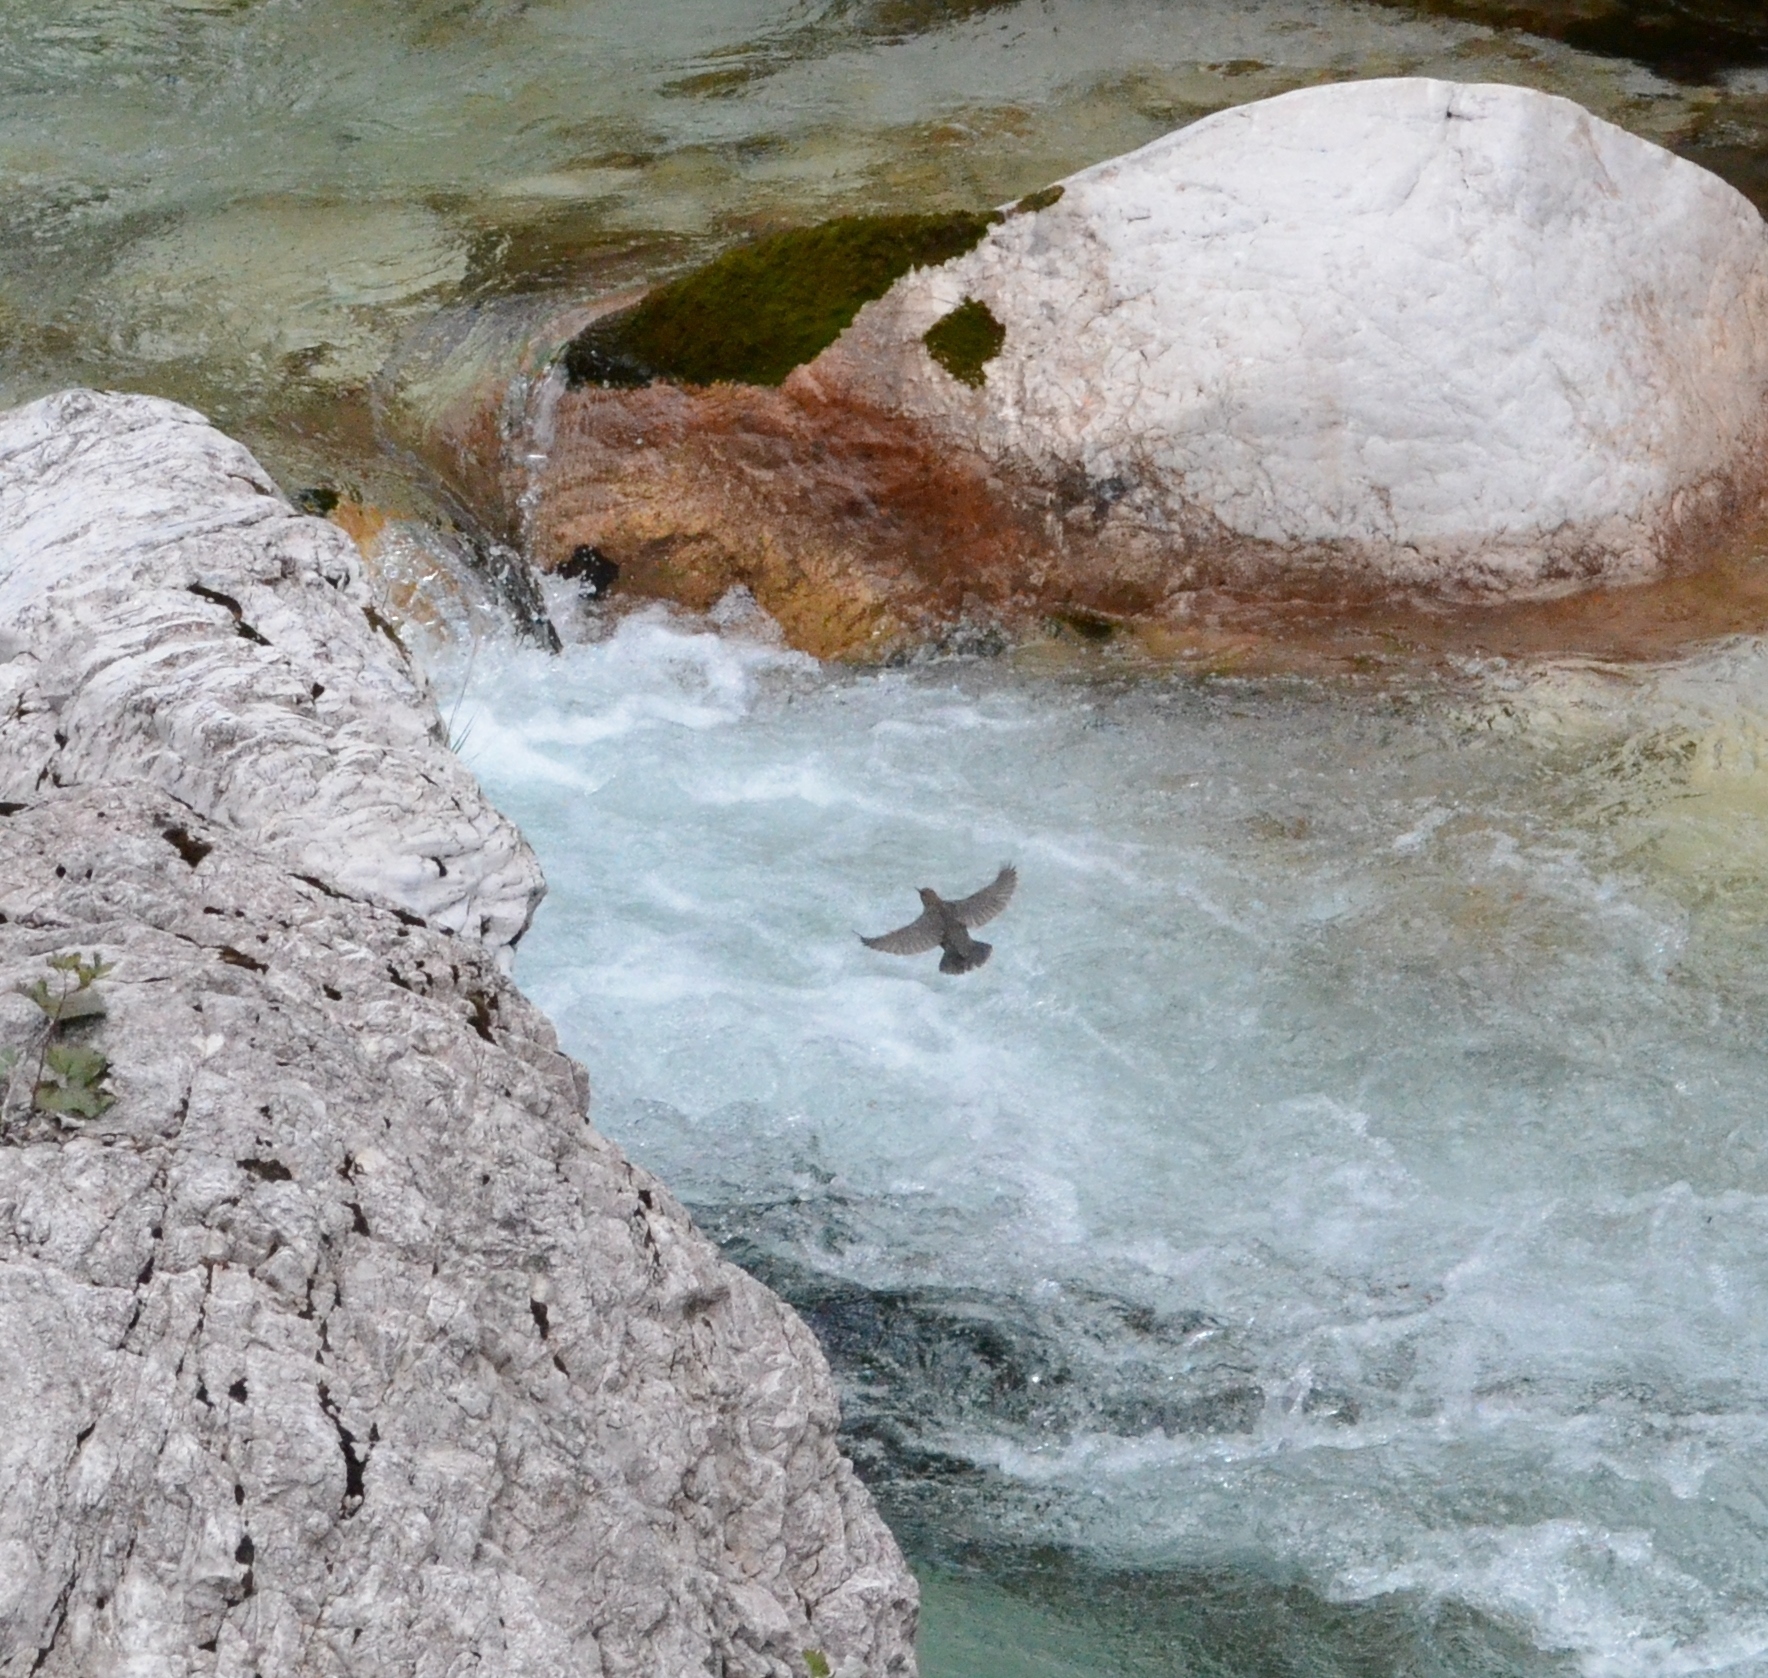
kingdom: Animalia
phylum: Chordata
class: Aves
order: Passeriformes
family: Cinclidae
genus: Cinclus
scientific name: Cinclus cinclus
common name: White-throated dipper
